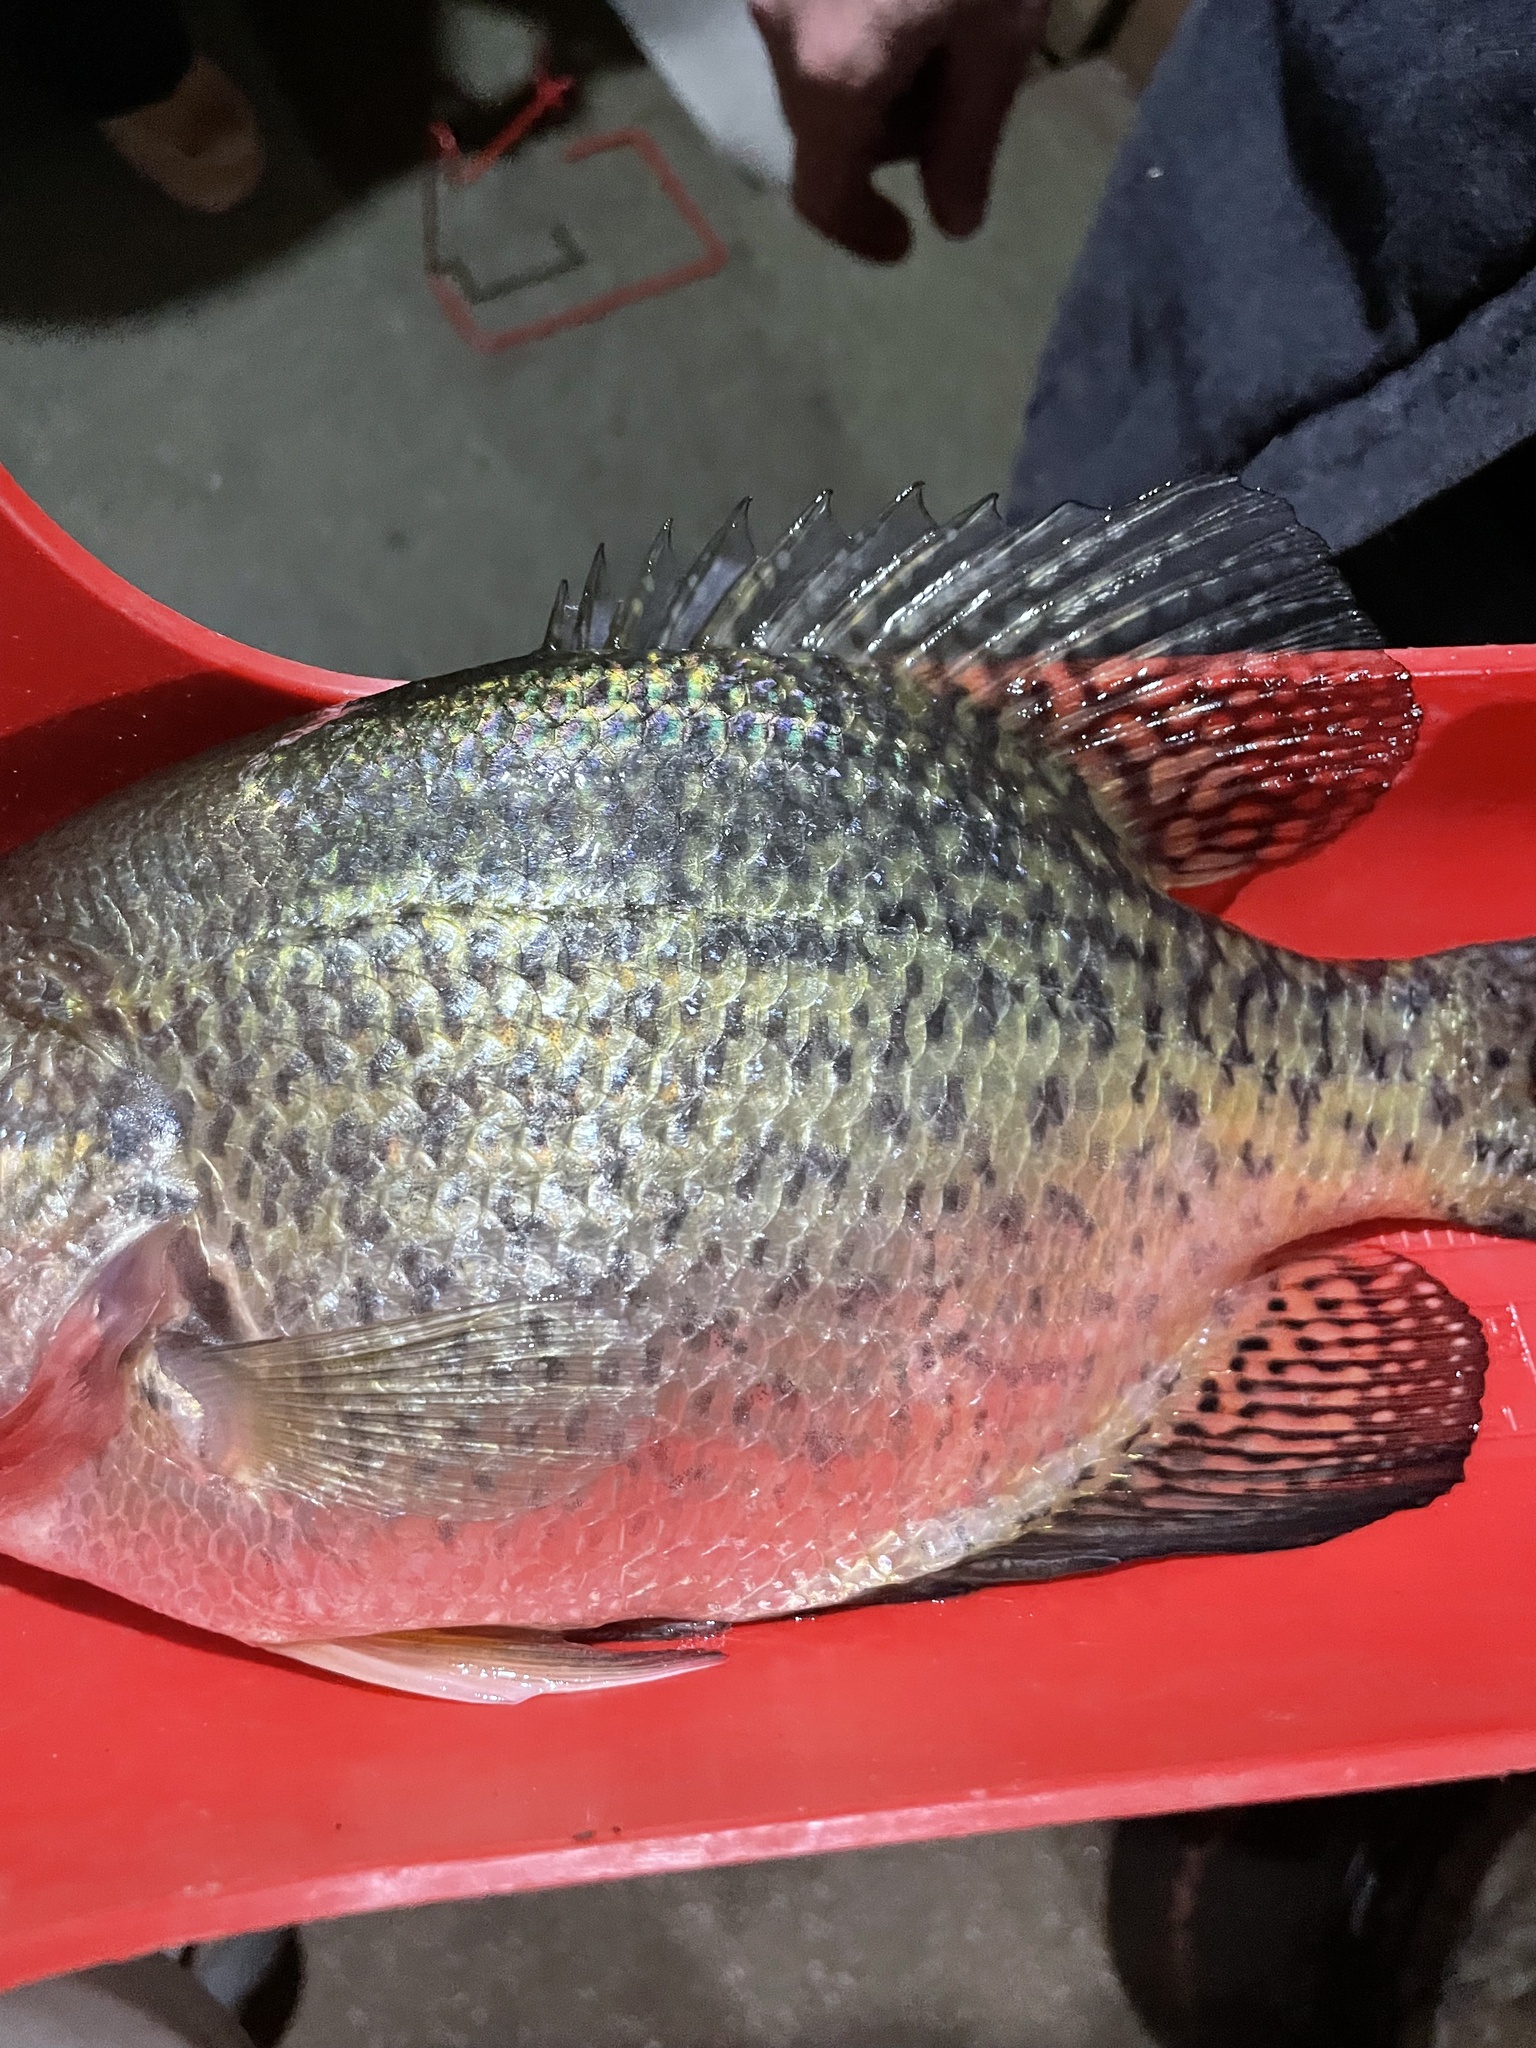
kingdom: Animalia
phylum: Chordata
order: Perciformes
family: Centrarchidae
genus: Pomoxis
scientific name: Pomoxis nigromaculatus
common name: Black crappie
